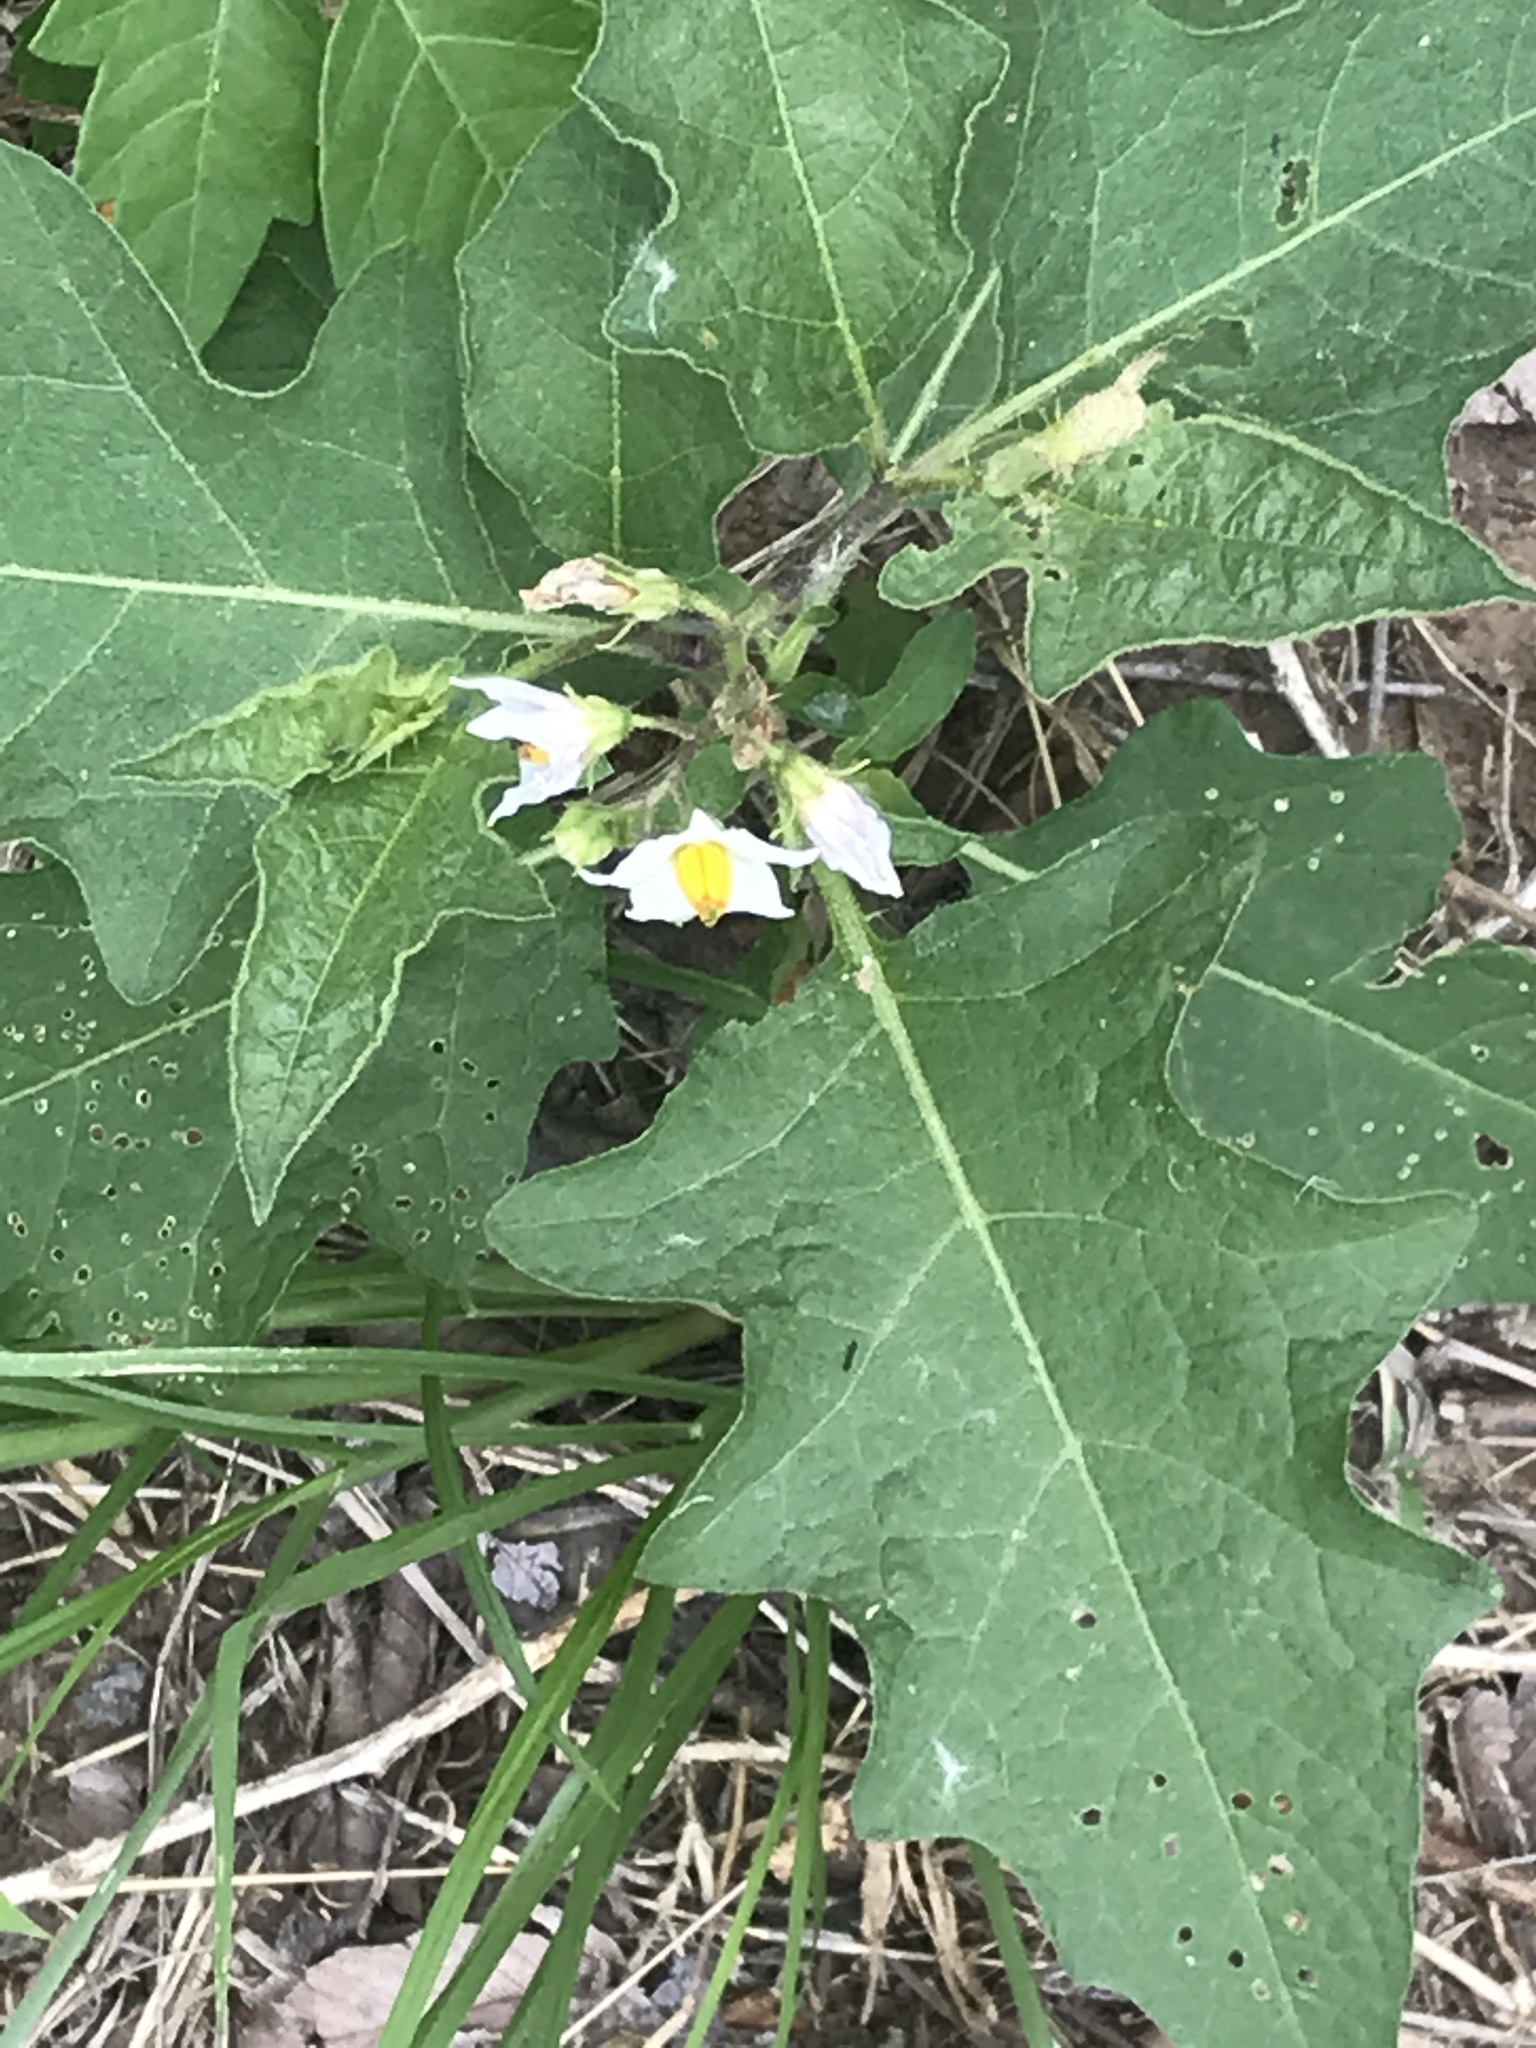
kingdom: Plantae
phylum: Tracheophyta
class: Magnoliopsida
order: Solanales
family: Solanaceae
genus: Solanum
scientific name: Solanum carolinense
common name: Horse-nettle
